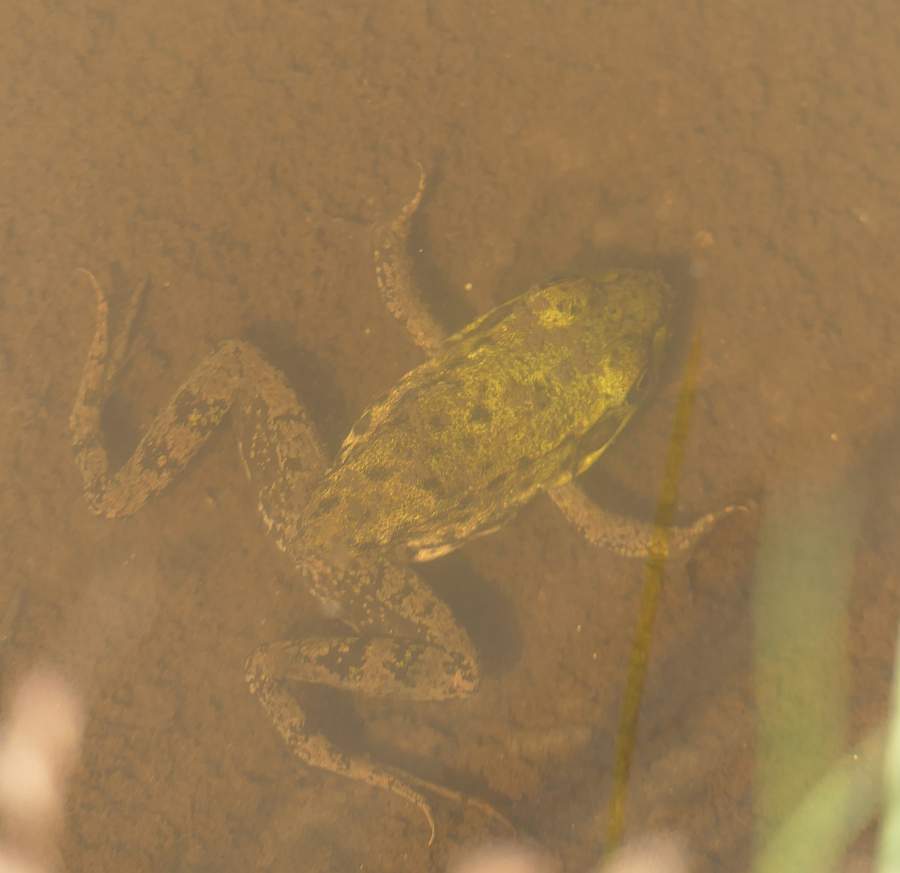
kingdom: Animalia
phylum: Chordata
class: Amphibia
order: Anura
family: Ranidae
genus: Lithobates
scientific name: Lithobates clamitans
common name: Green frog
